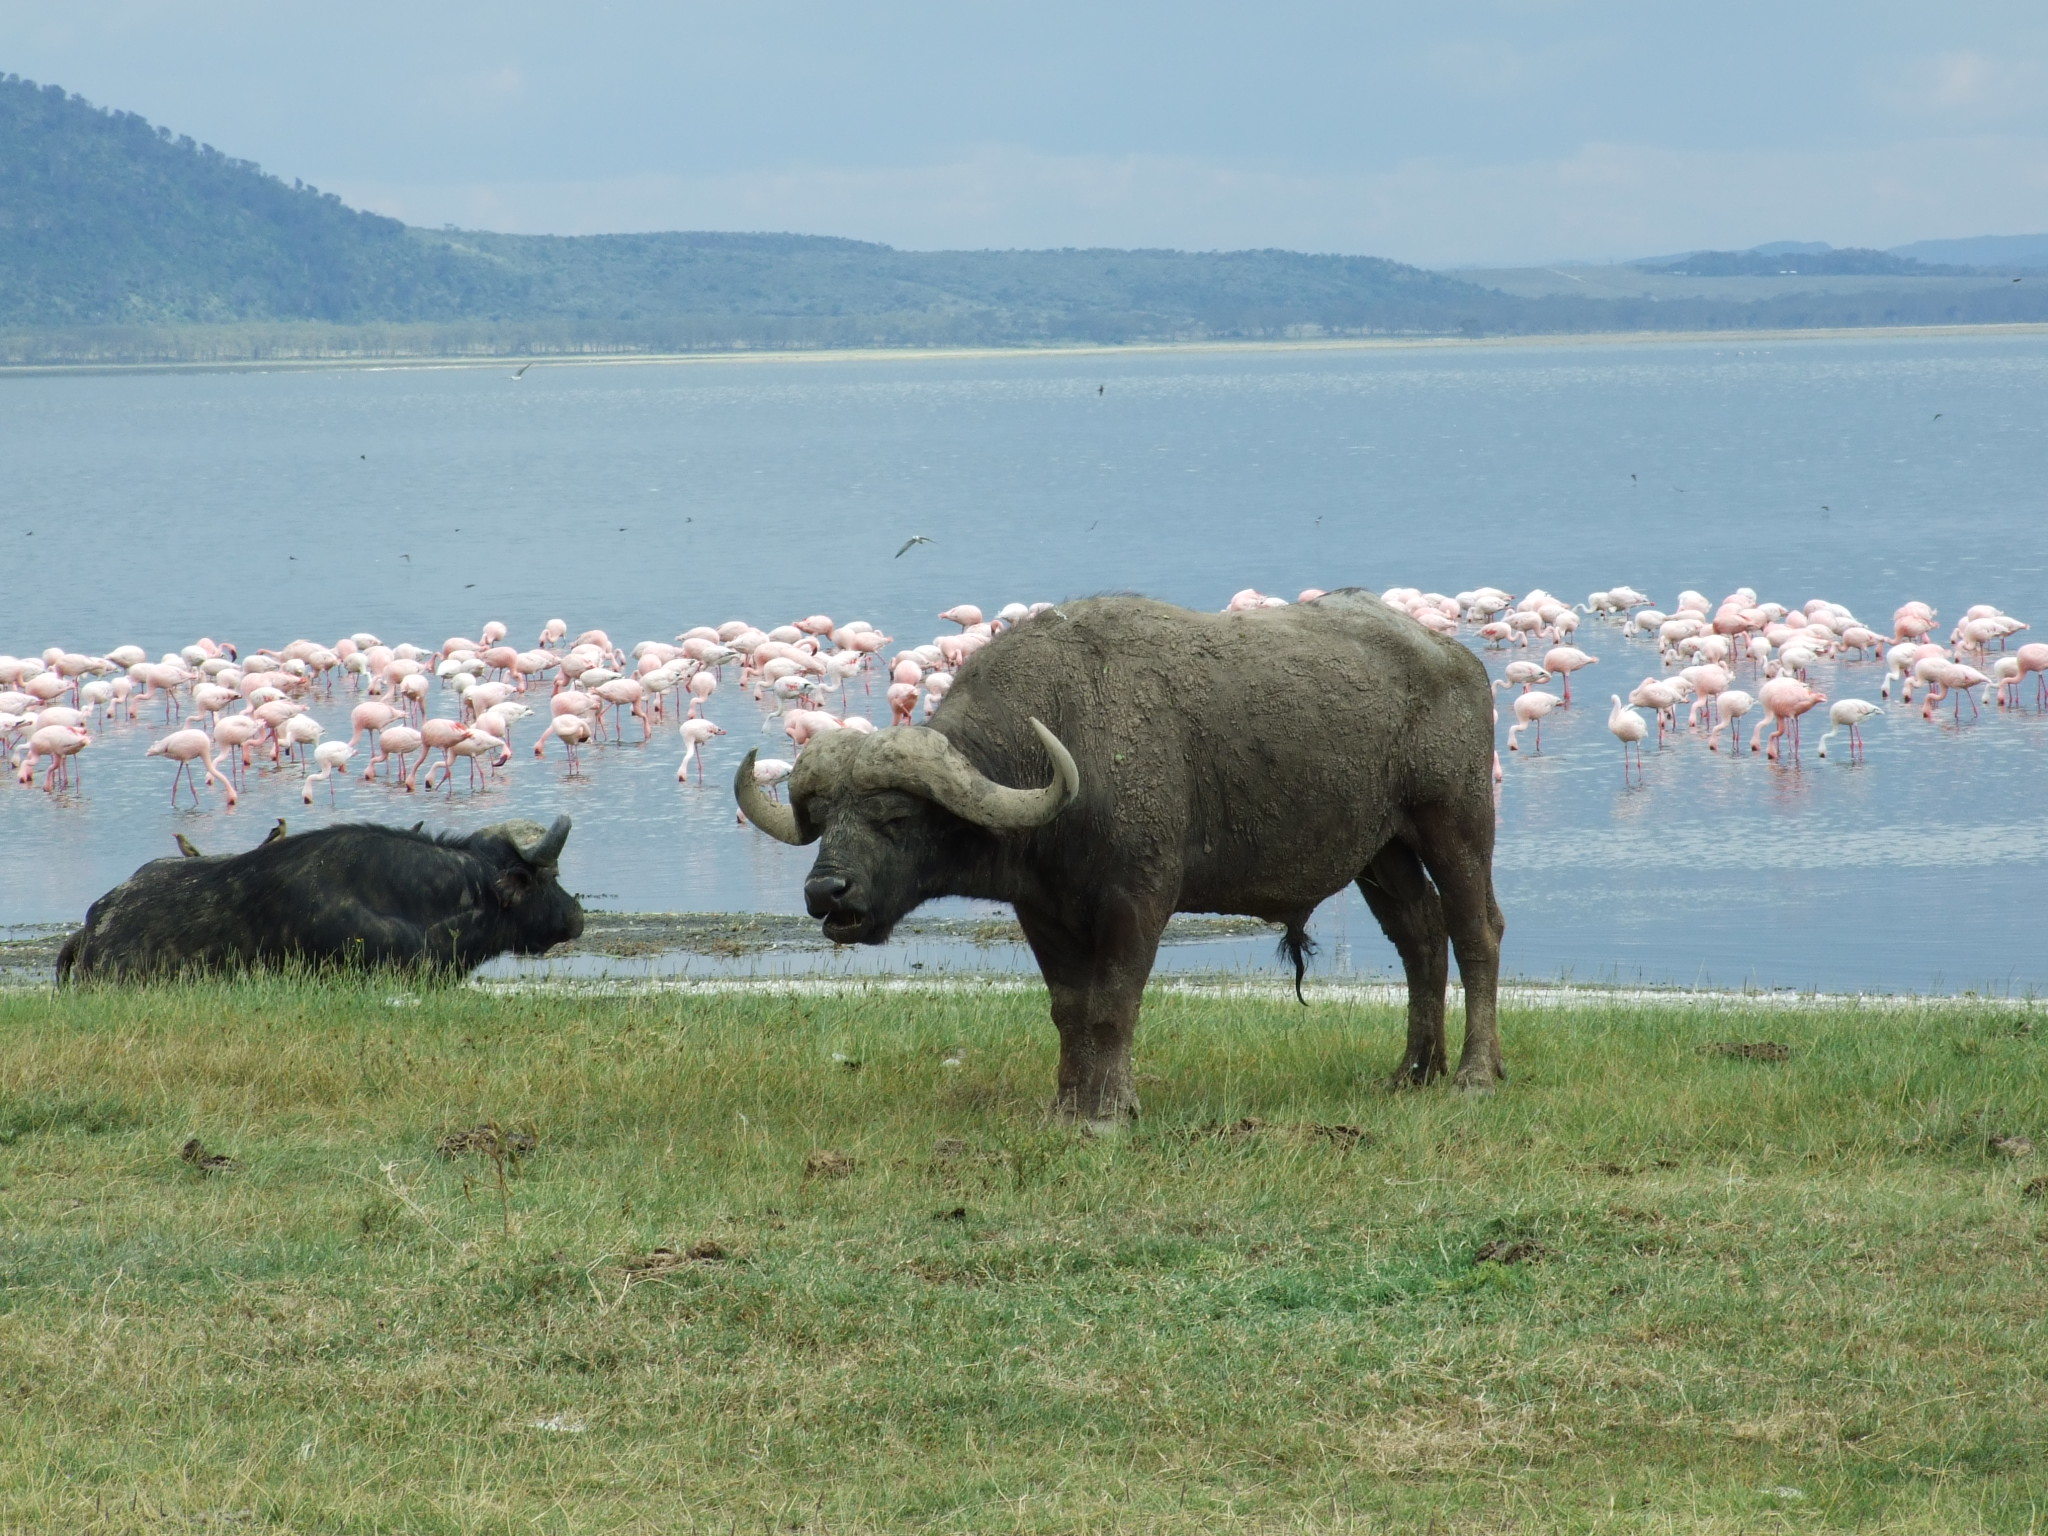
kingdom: Animalia
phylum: Chordata
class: Mammalia
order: Artiodactyla
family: Bovidae
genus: Syncerus
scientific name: Syncerus caffer
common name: African buffalo
